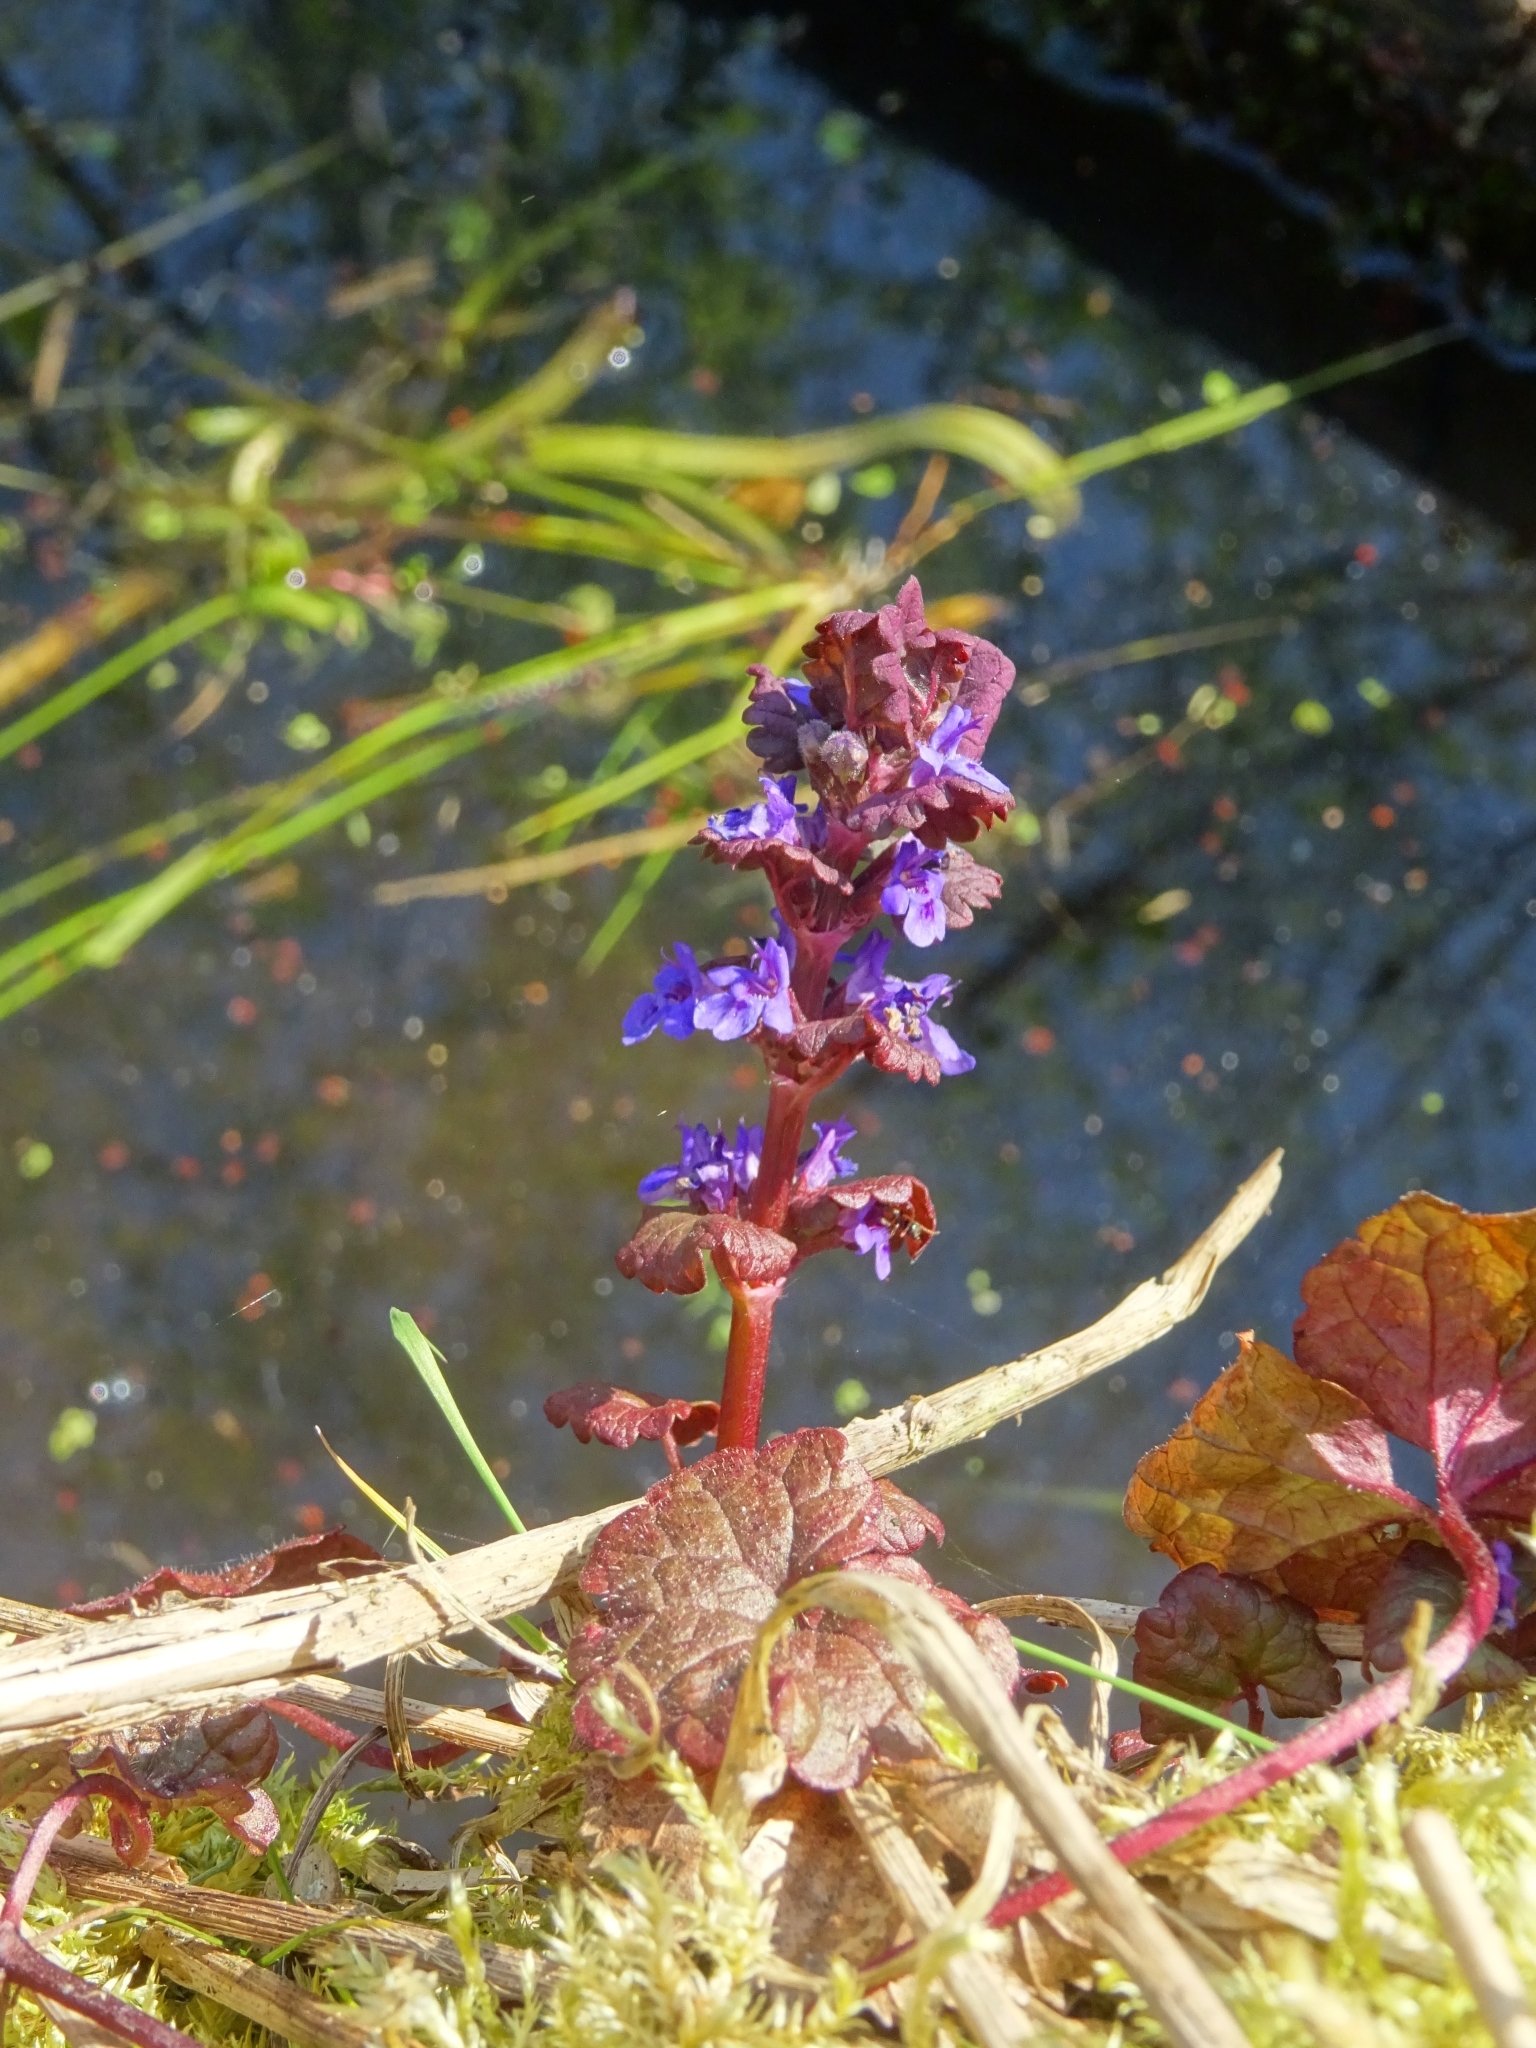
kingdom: Plantae
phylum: Tracheophyta
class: Magnoliopsida
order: Lamiales
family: Lamiaceae
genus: Glechoma
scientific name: Glechoma hederacea
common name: Ground ivy
